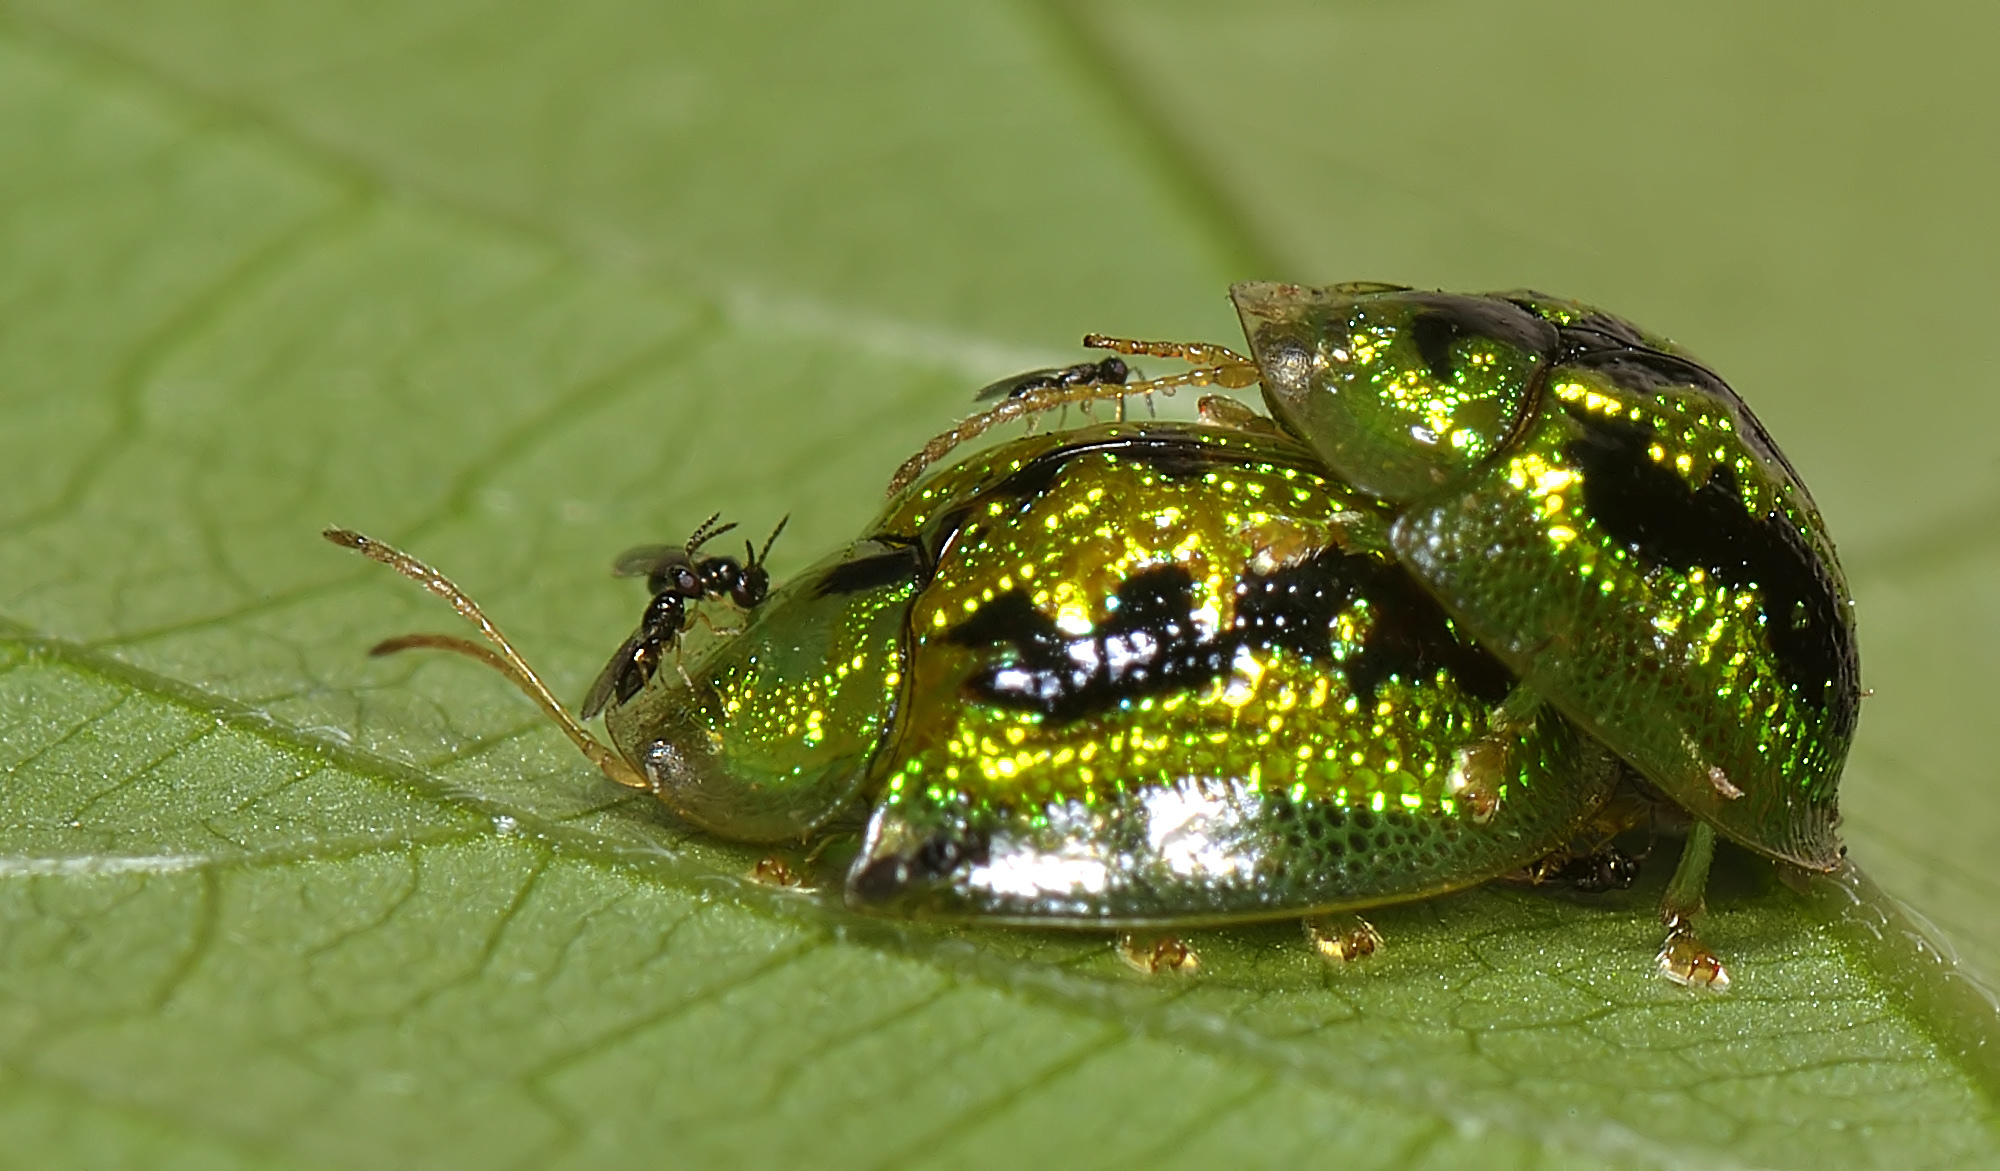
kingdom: Animalia
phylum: Arthropoda
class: Insecta
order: Coleoptera
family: Chrysomelidae
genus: Cassida
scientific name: Cassida circumdata
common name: Tortoise beetle
